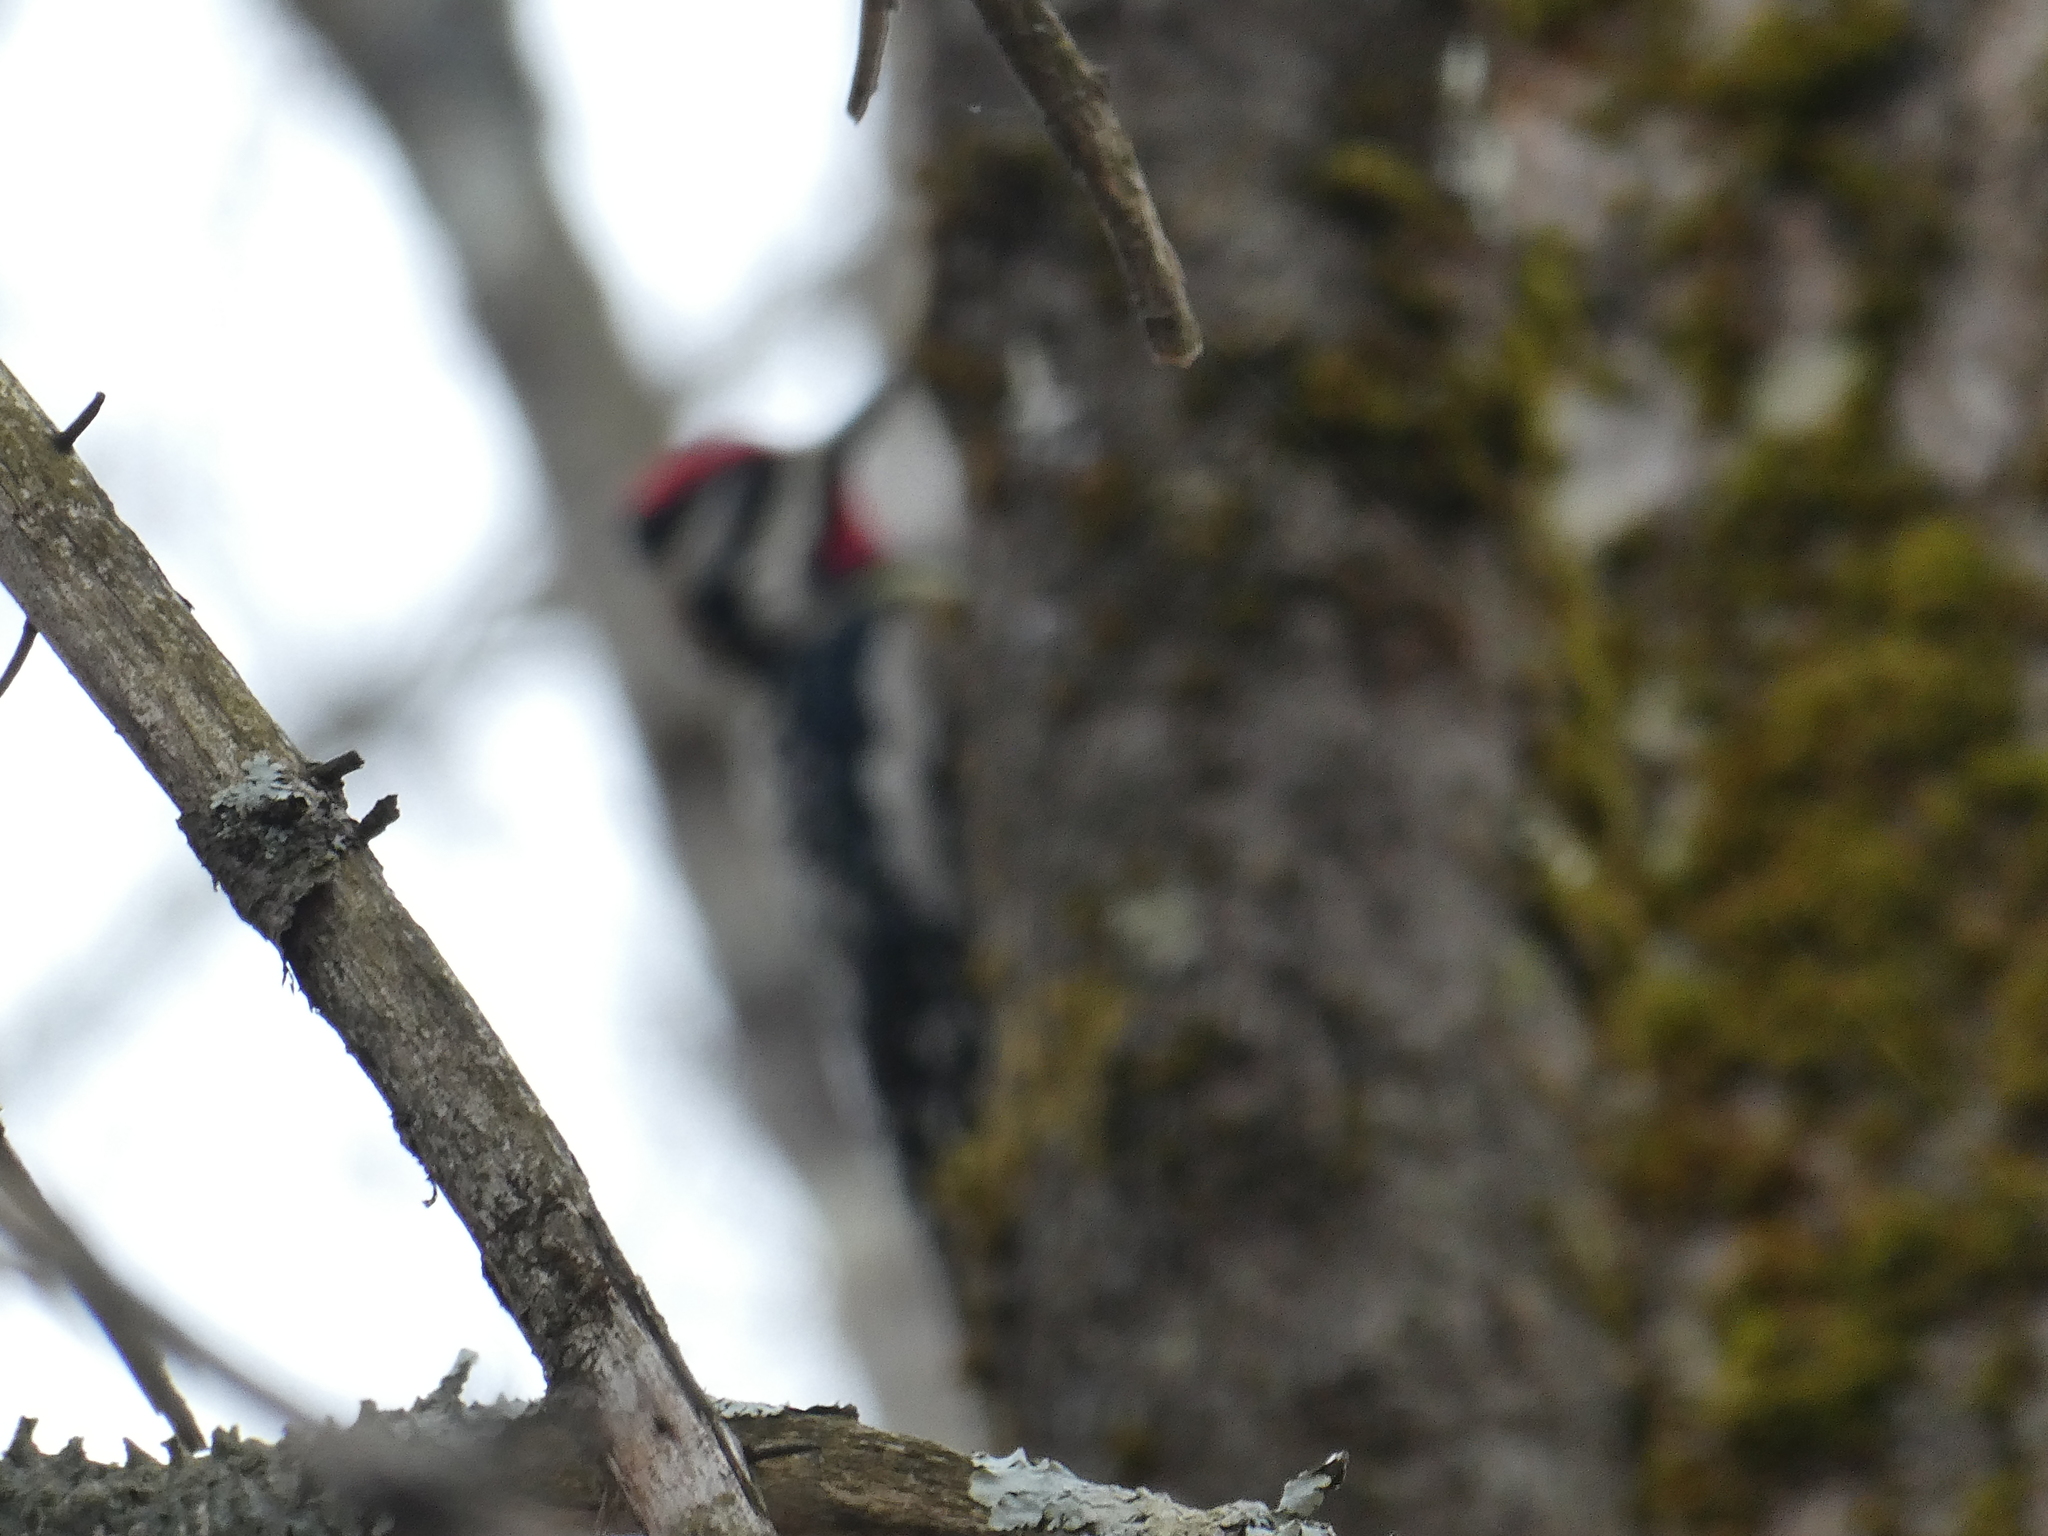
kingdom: Animalia
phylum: Chordata
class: Aves
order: Piciformes
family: Picidae
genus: Sphyrapicus
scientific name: Sphyrapicus varius
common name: Yellow-bellied sapsucker
